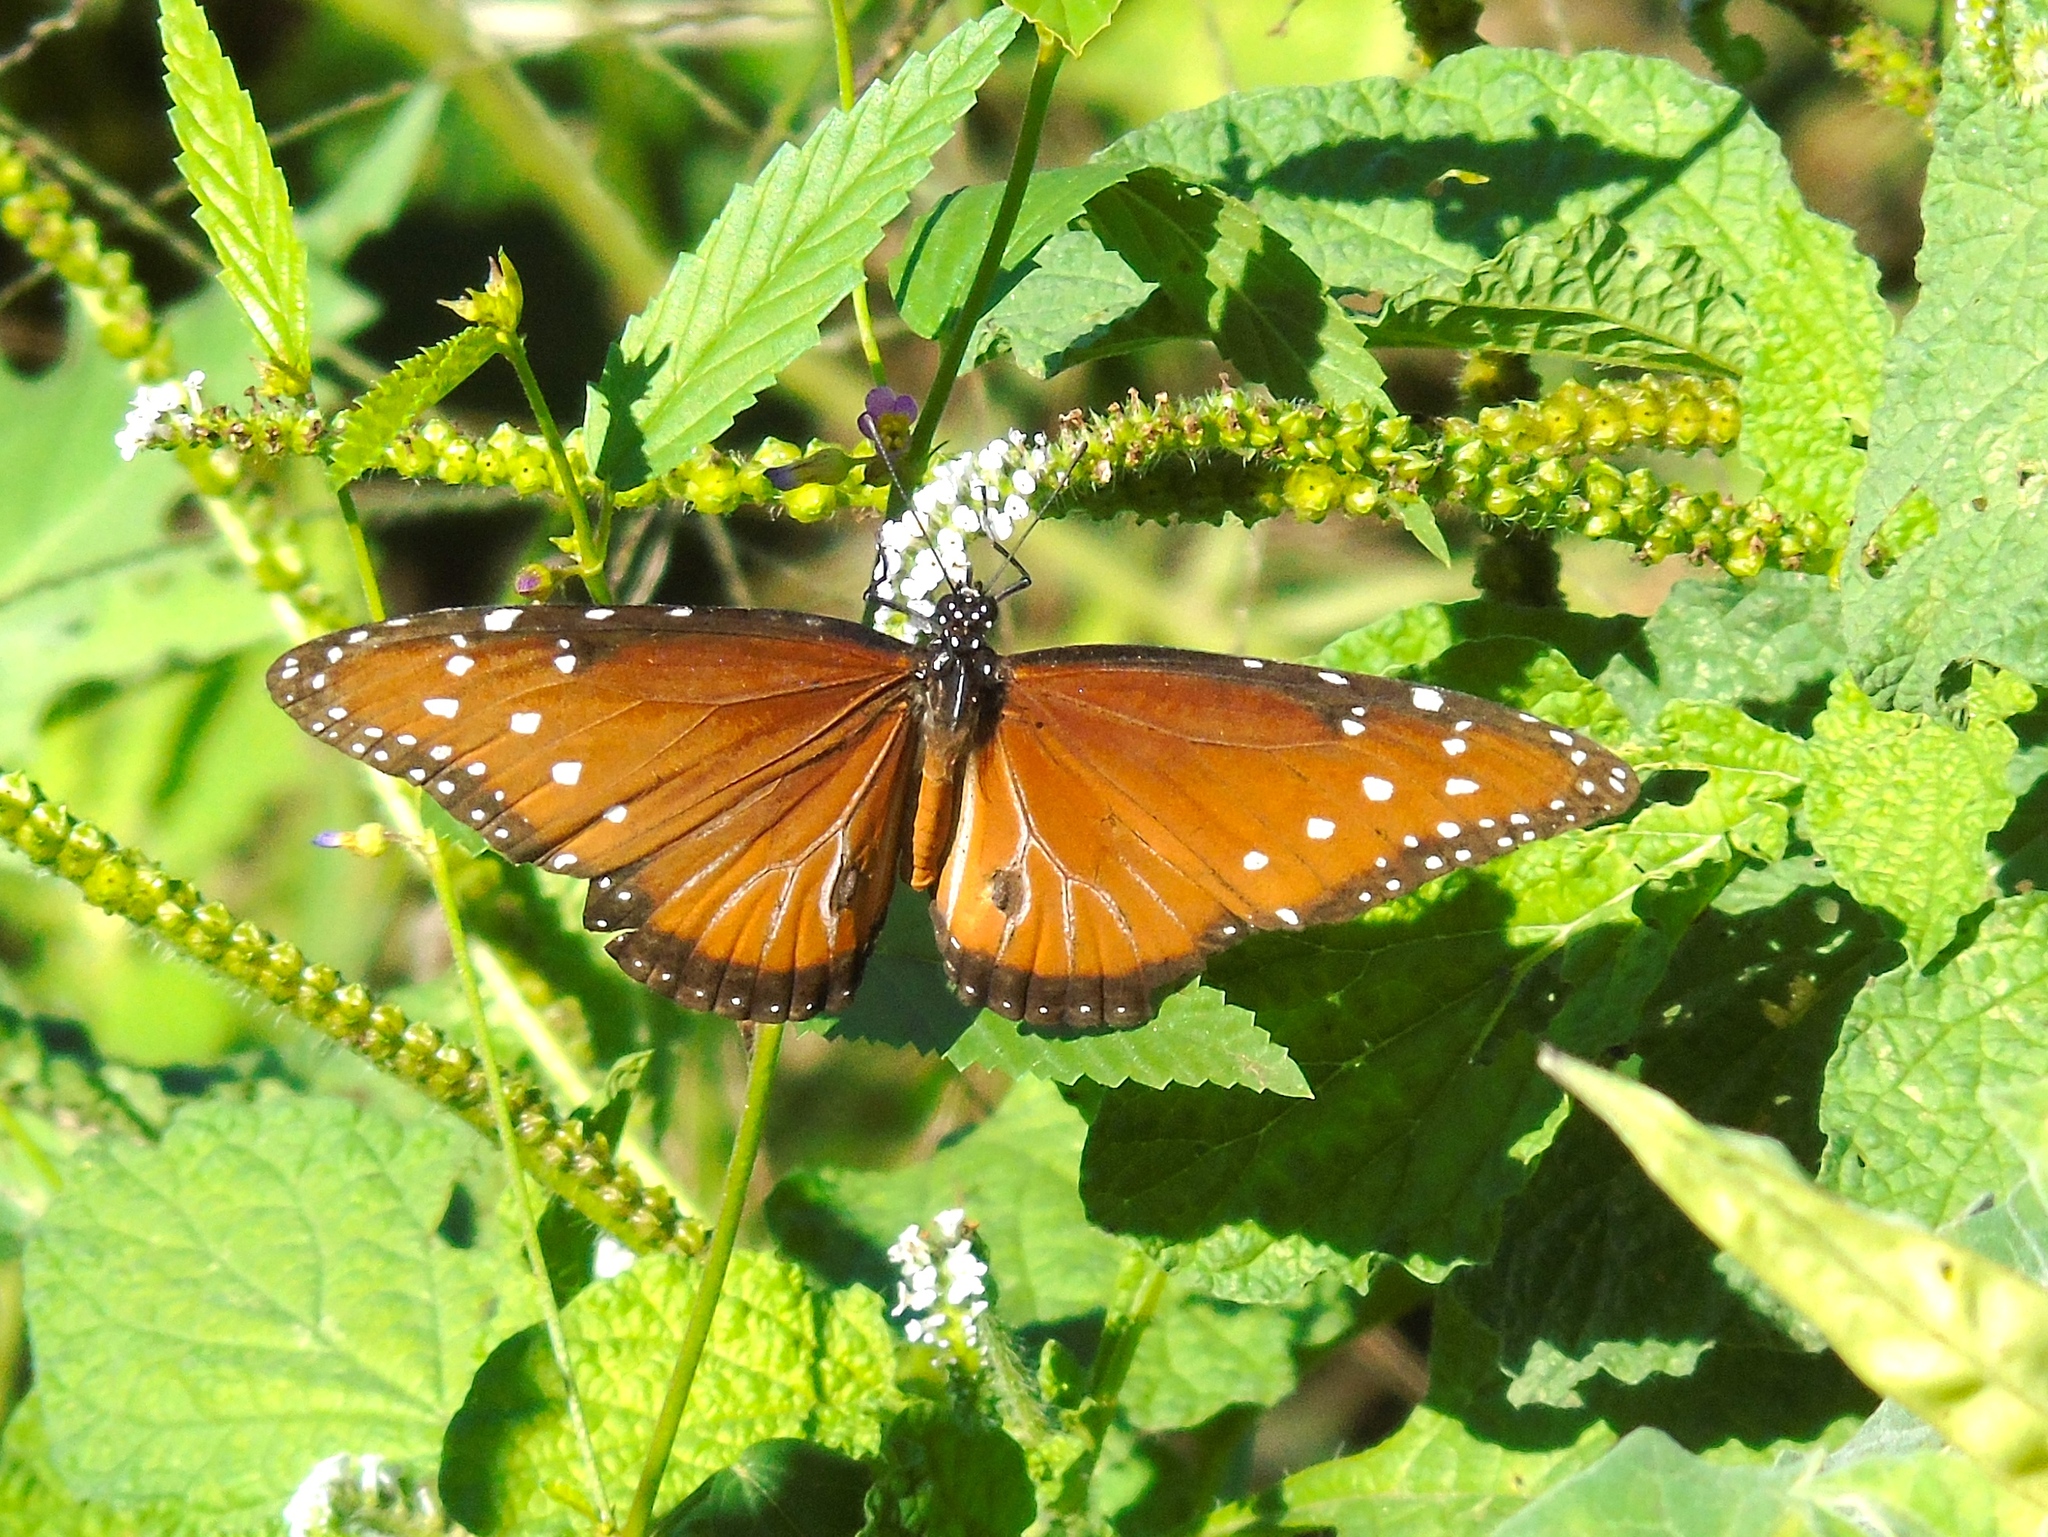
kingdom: Animalia
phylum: Arthropoda
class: Insecta
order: Lepidoptera
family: Nymphalidae
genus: Danaus
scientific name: Danaus gilippus
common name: Queen
